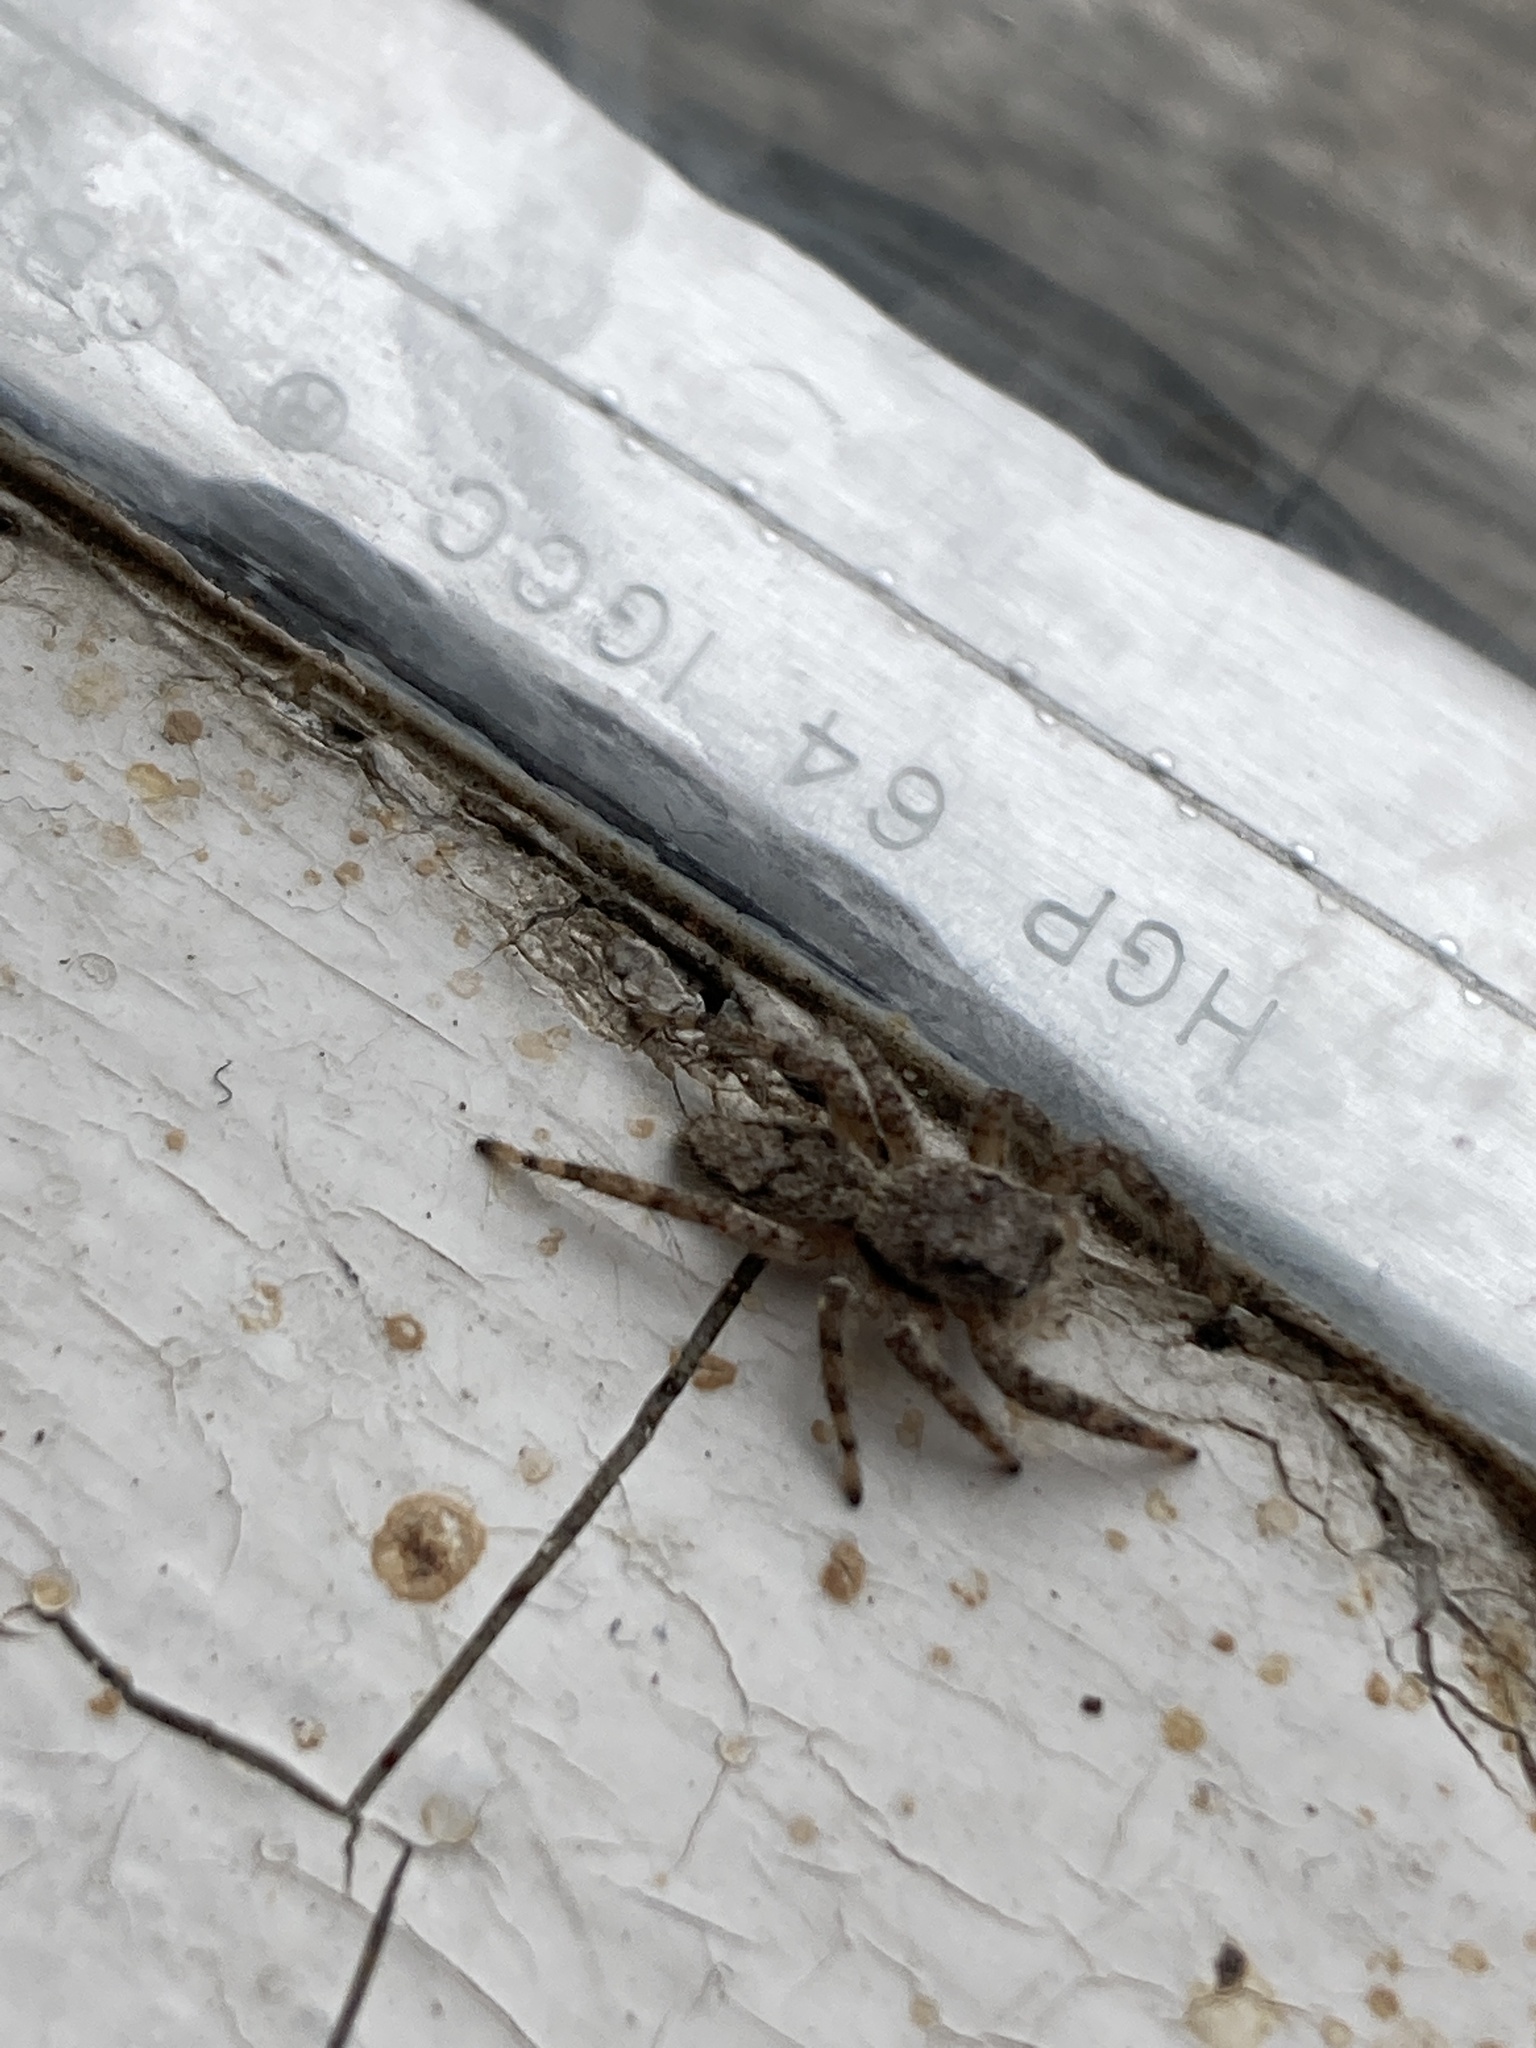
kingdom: Animalia
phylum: Arthropoda
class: Arachnida
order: Araneae
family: Salticidae
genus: Platycryptus
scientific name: Platycryptus undatus
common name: Tan jumping spider
